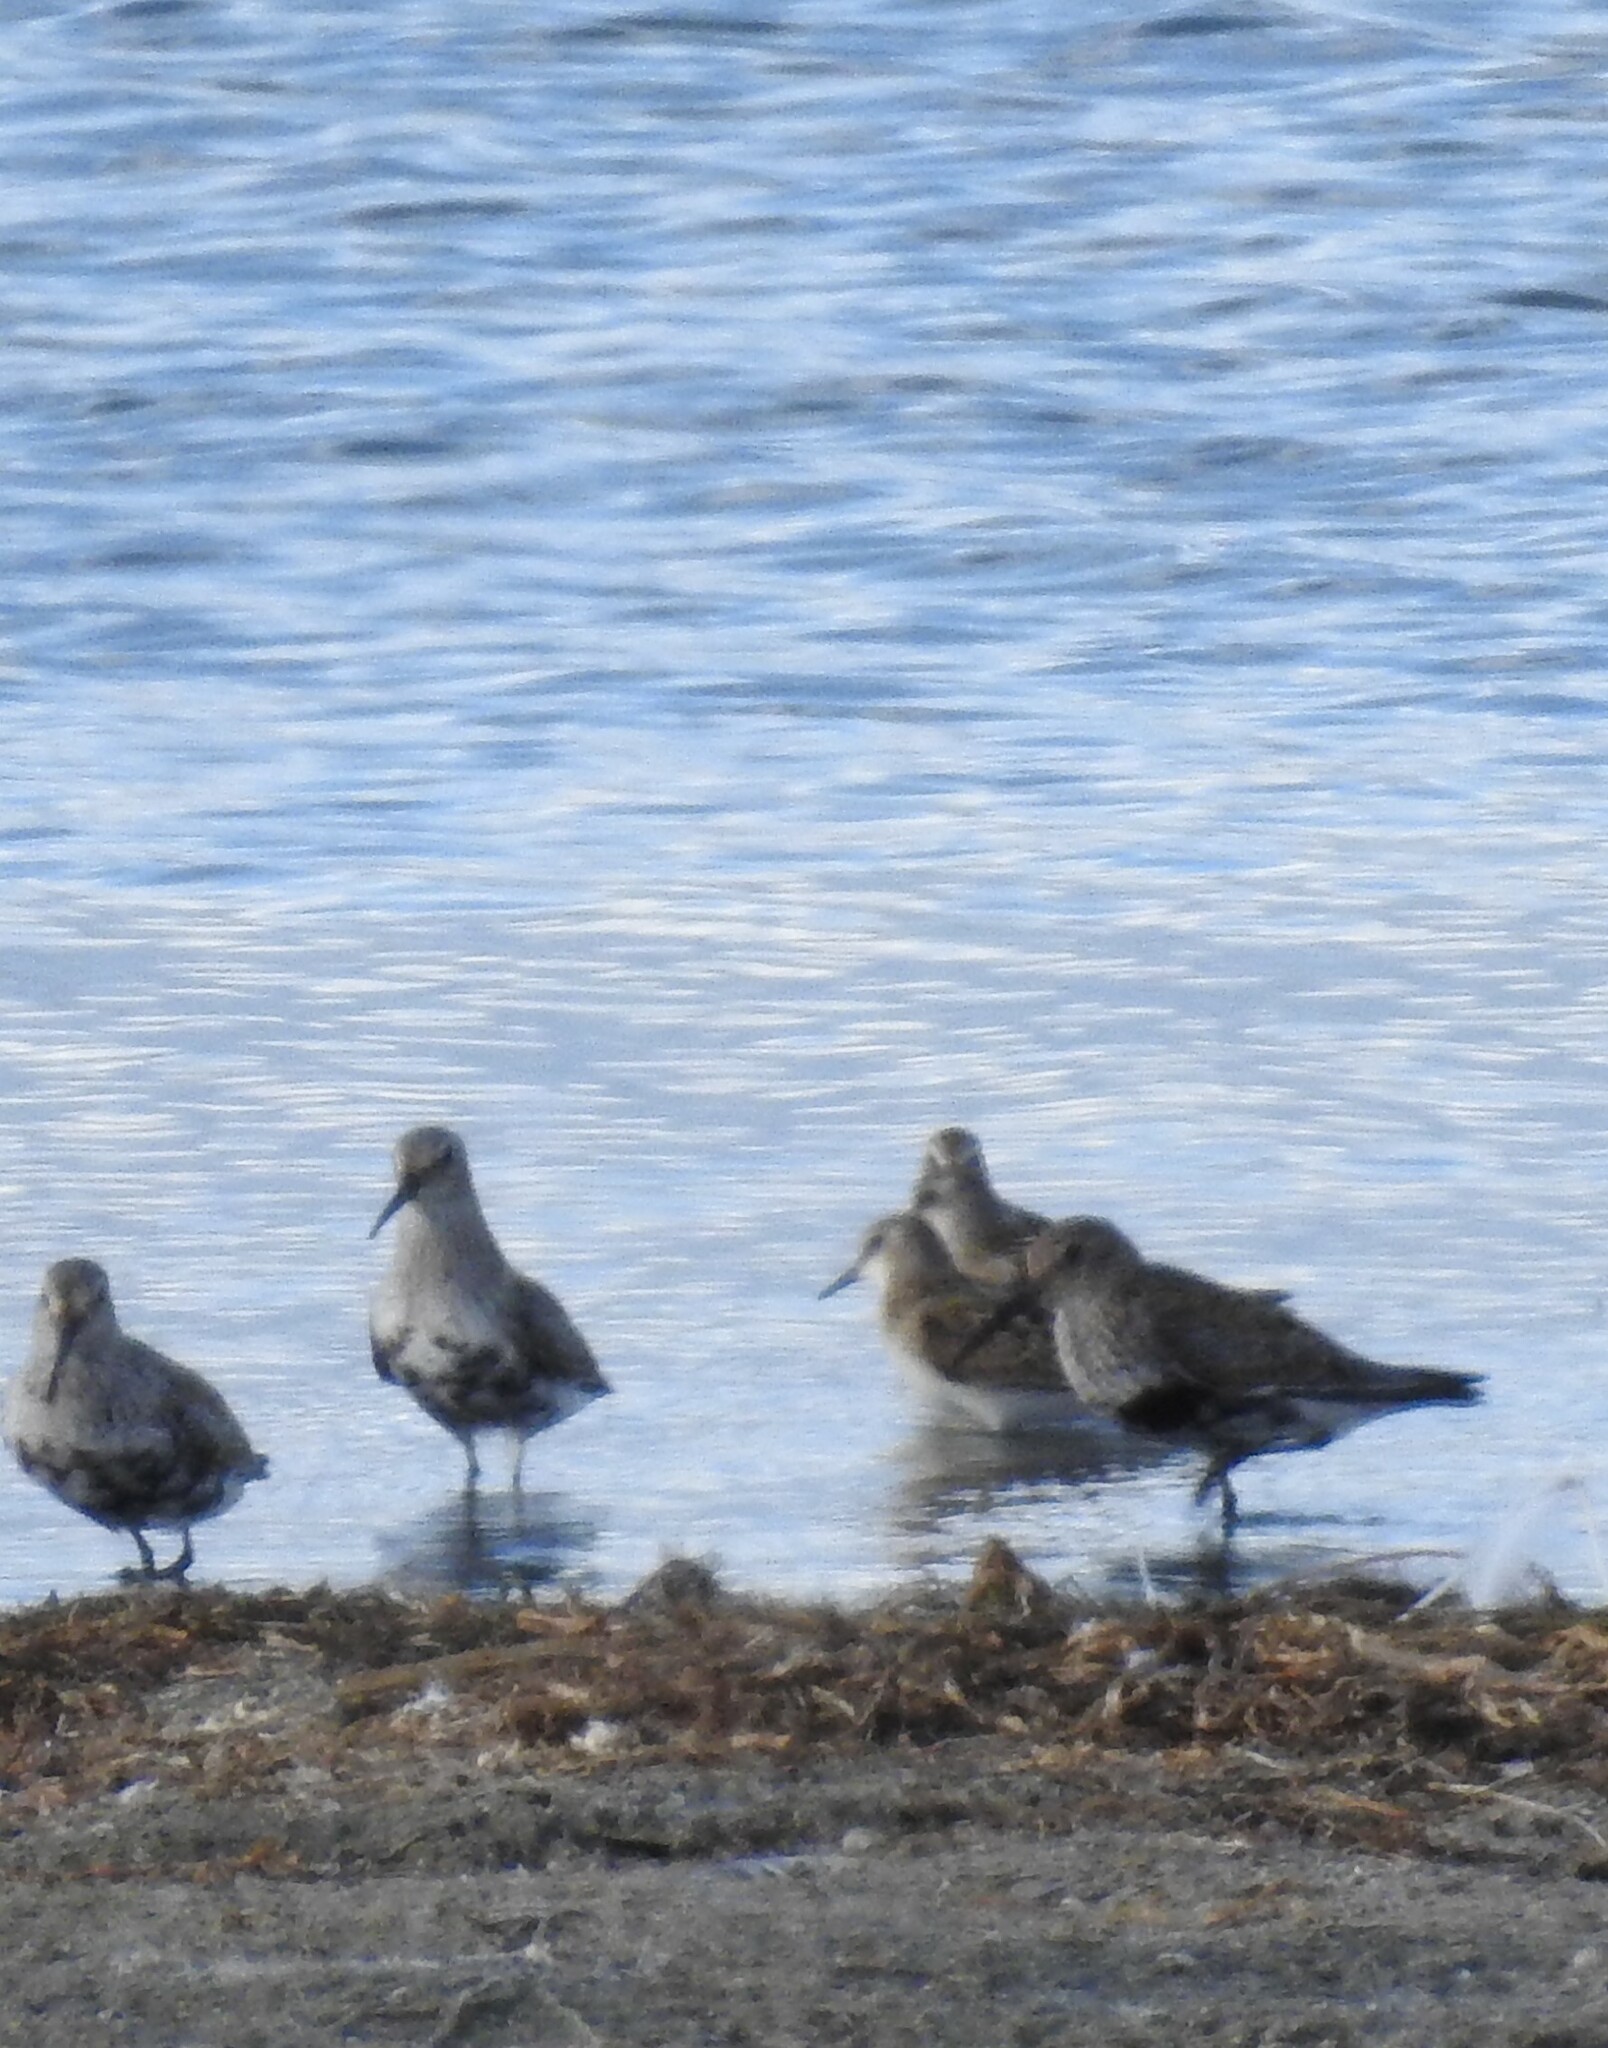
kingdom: Animalia
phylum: Chordata
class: Aves
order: Charadriiformes
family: Scolopacidae
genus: Calidris
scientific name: Calidris alpina
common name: Dunlin
